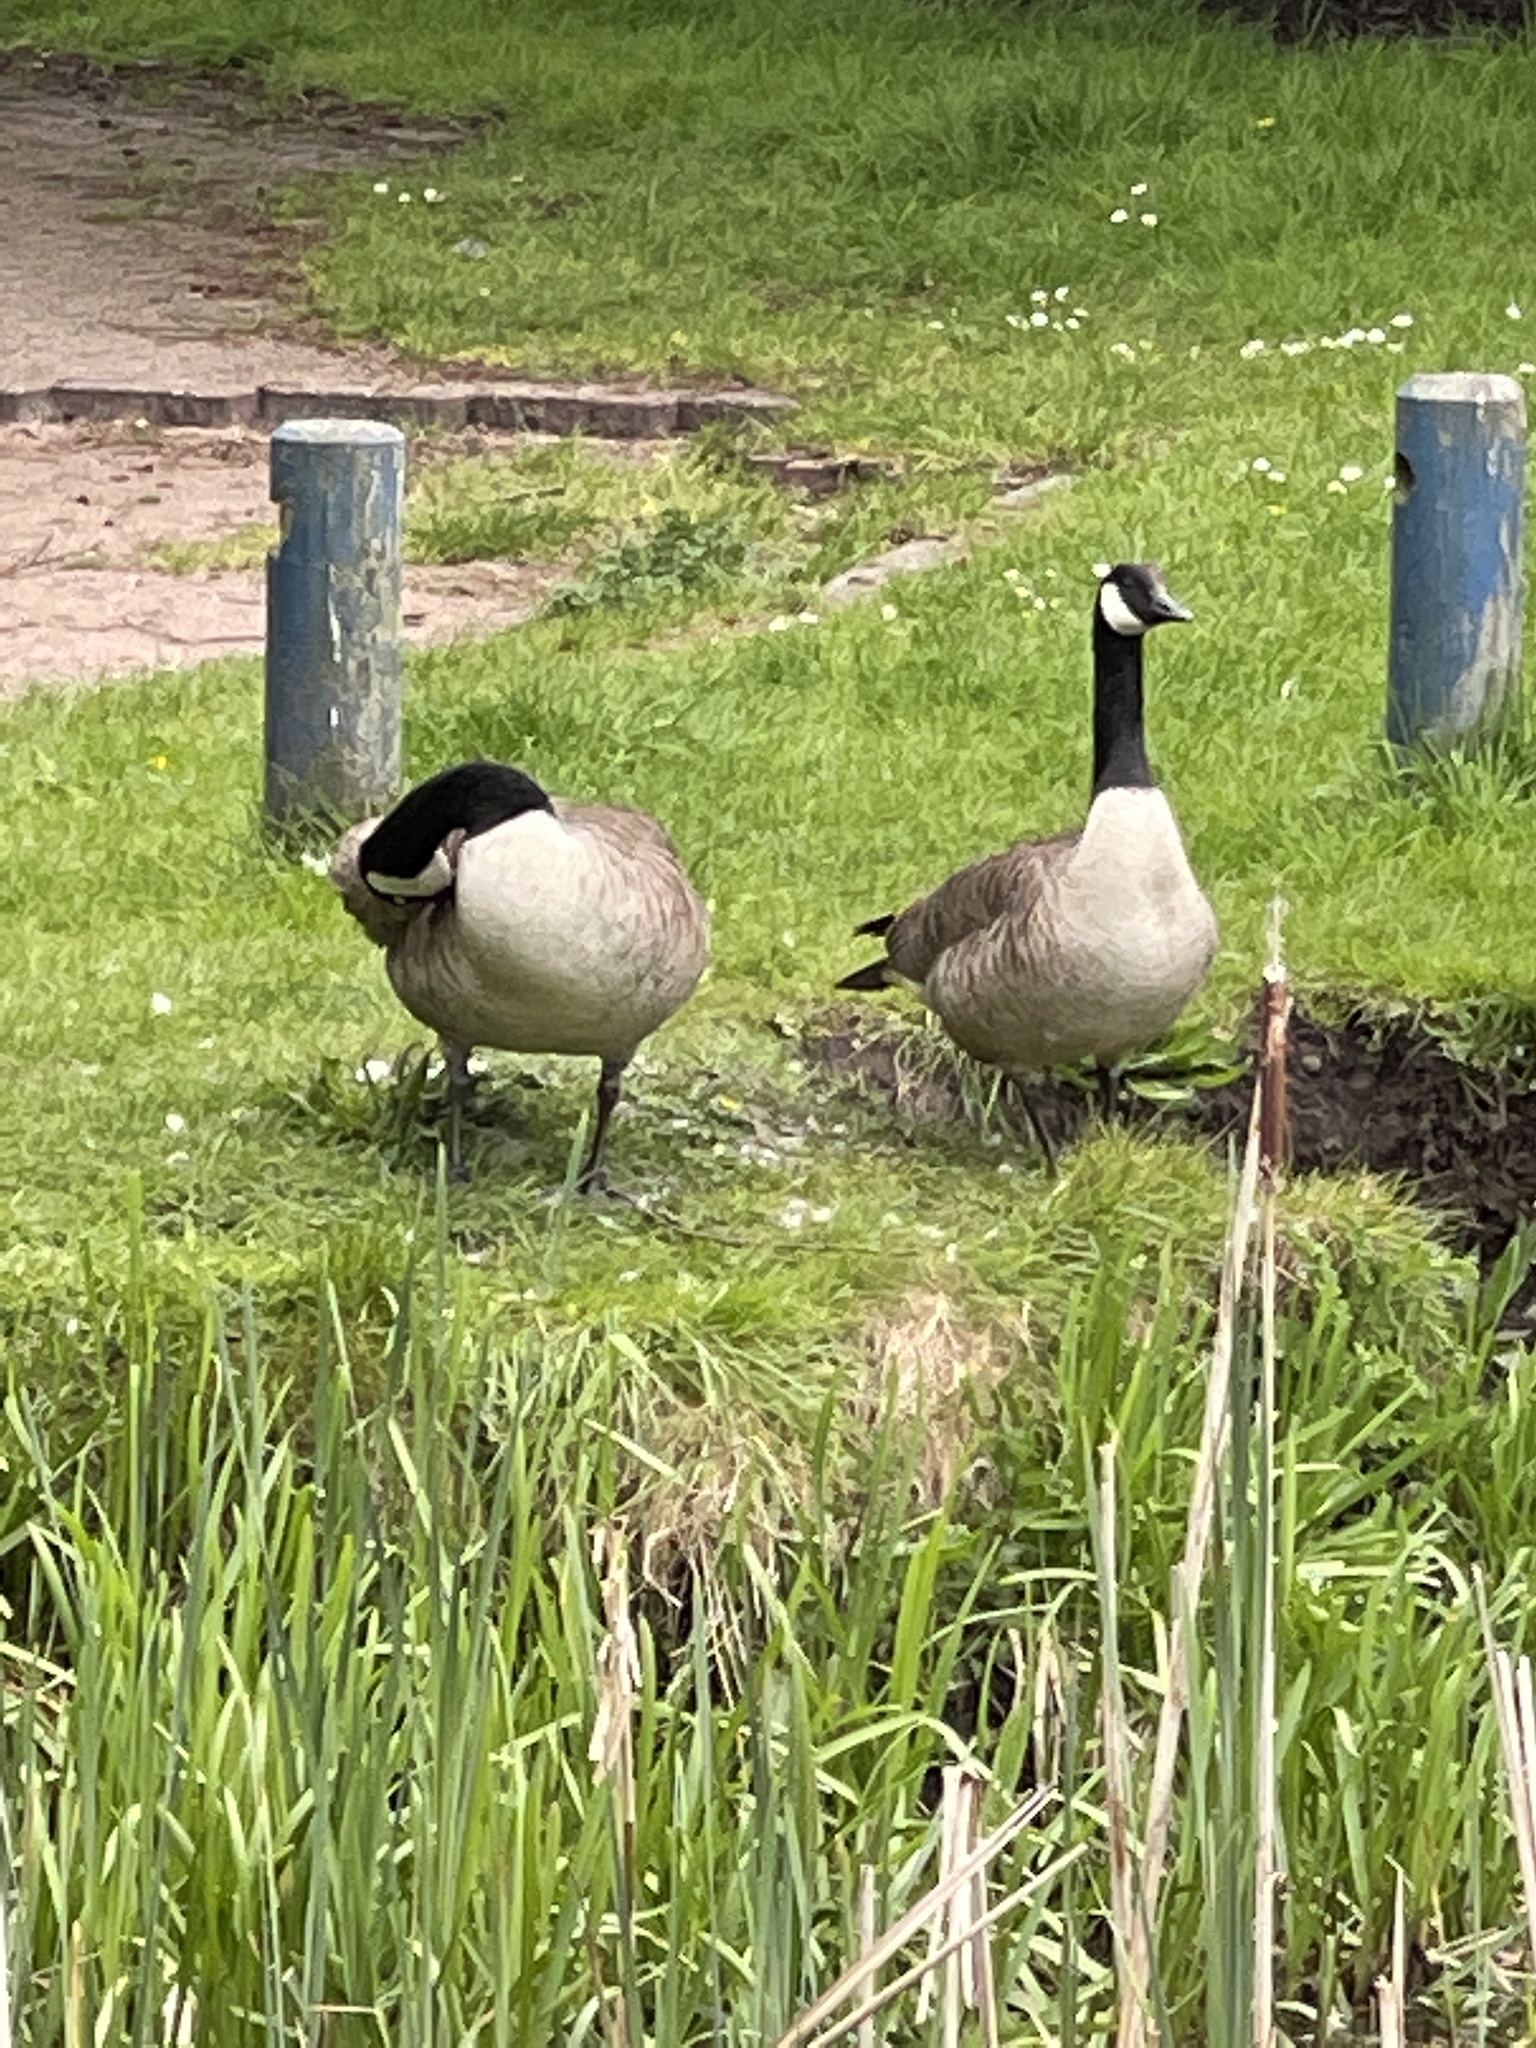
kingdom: Animalia
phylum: Chordata
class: Aves
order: Anseriformes
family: Anatidae
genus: Branta
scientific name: Branta canadensis
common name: Canada goose
